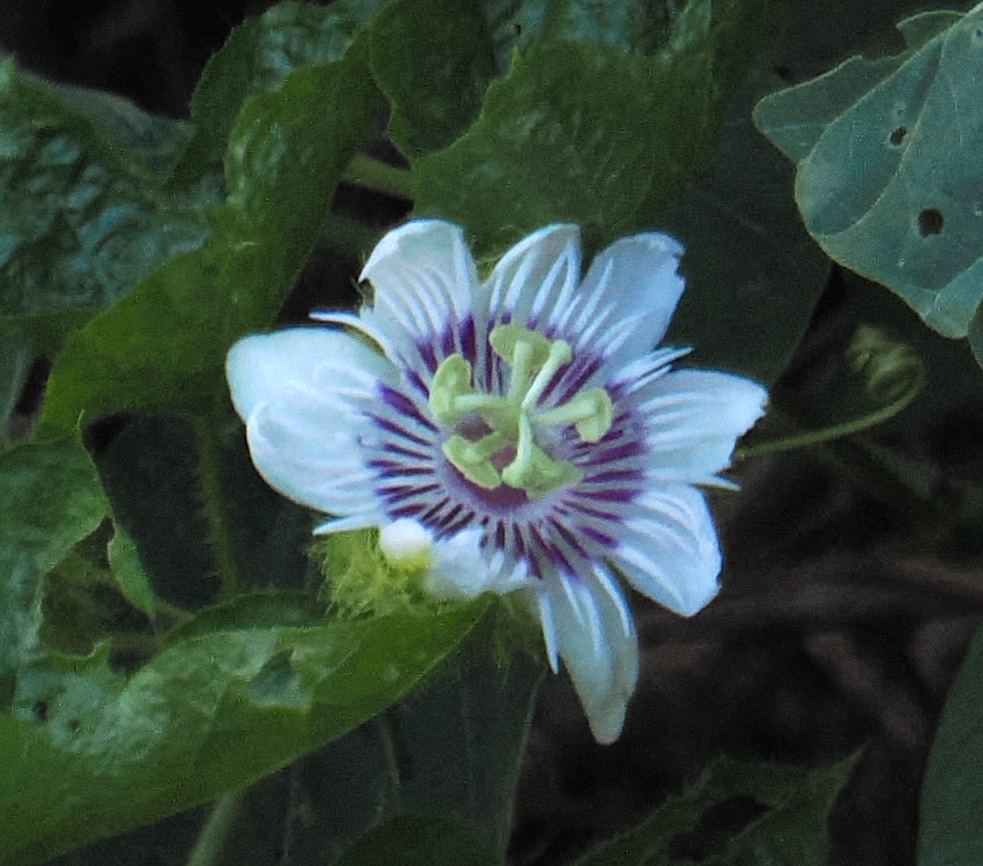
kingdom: Plantae
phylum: Tracheophyta
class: Magnoliopsida
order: Malpighiales
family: Passifloraceae
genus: Passiflora
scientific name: Passiflora vesicaria
